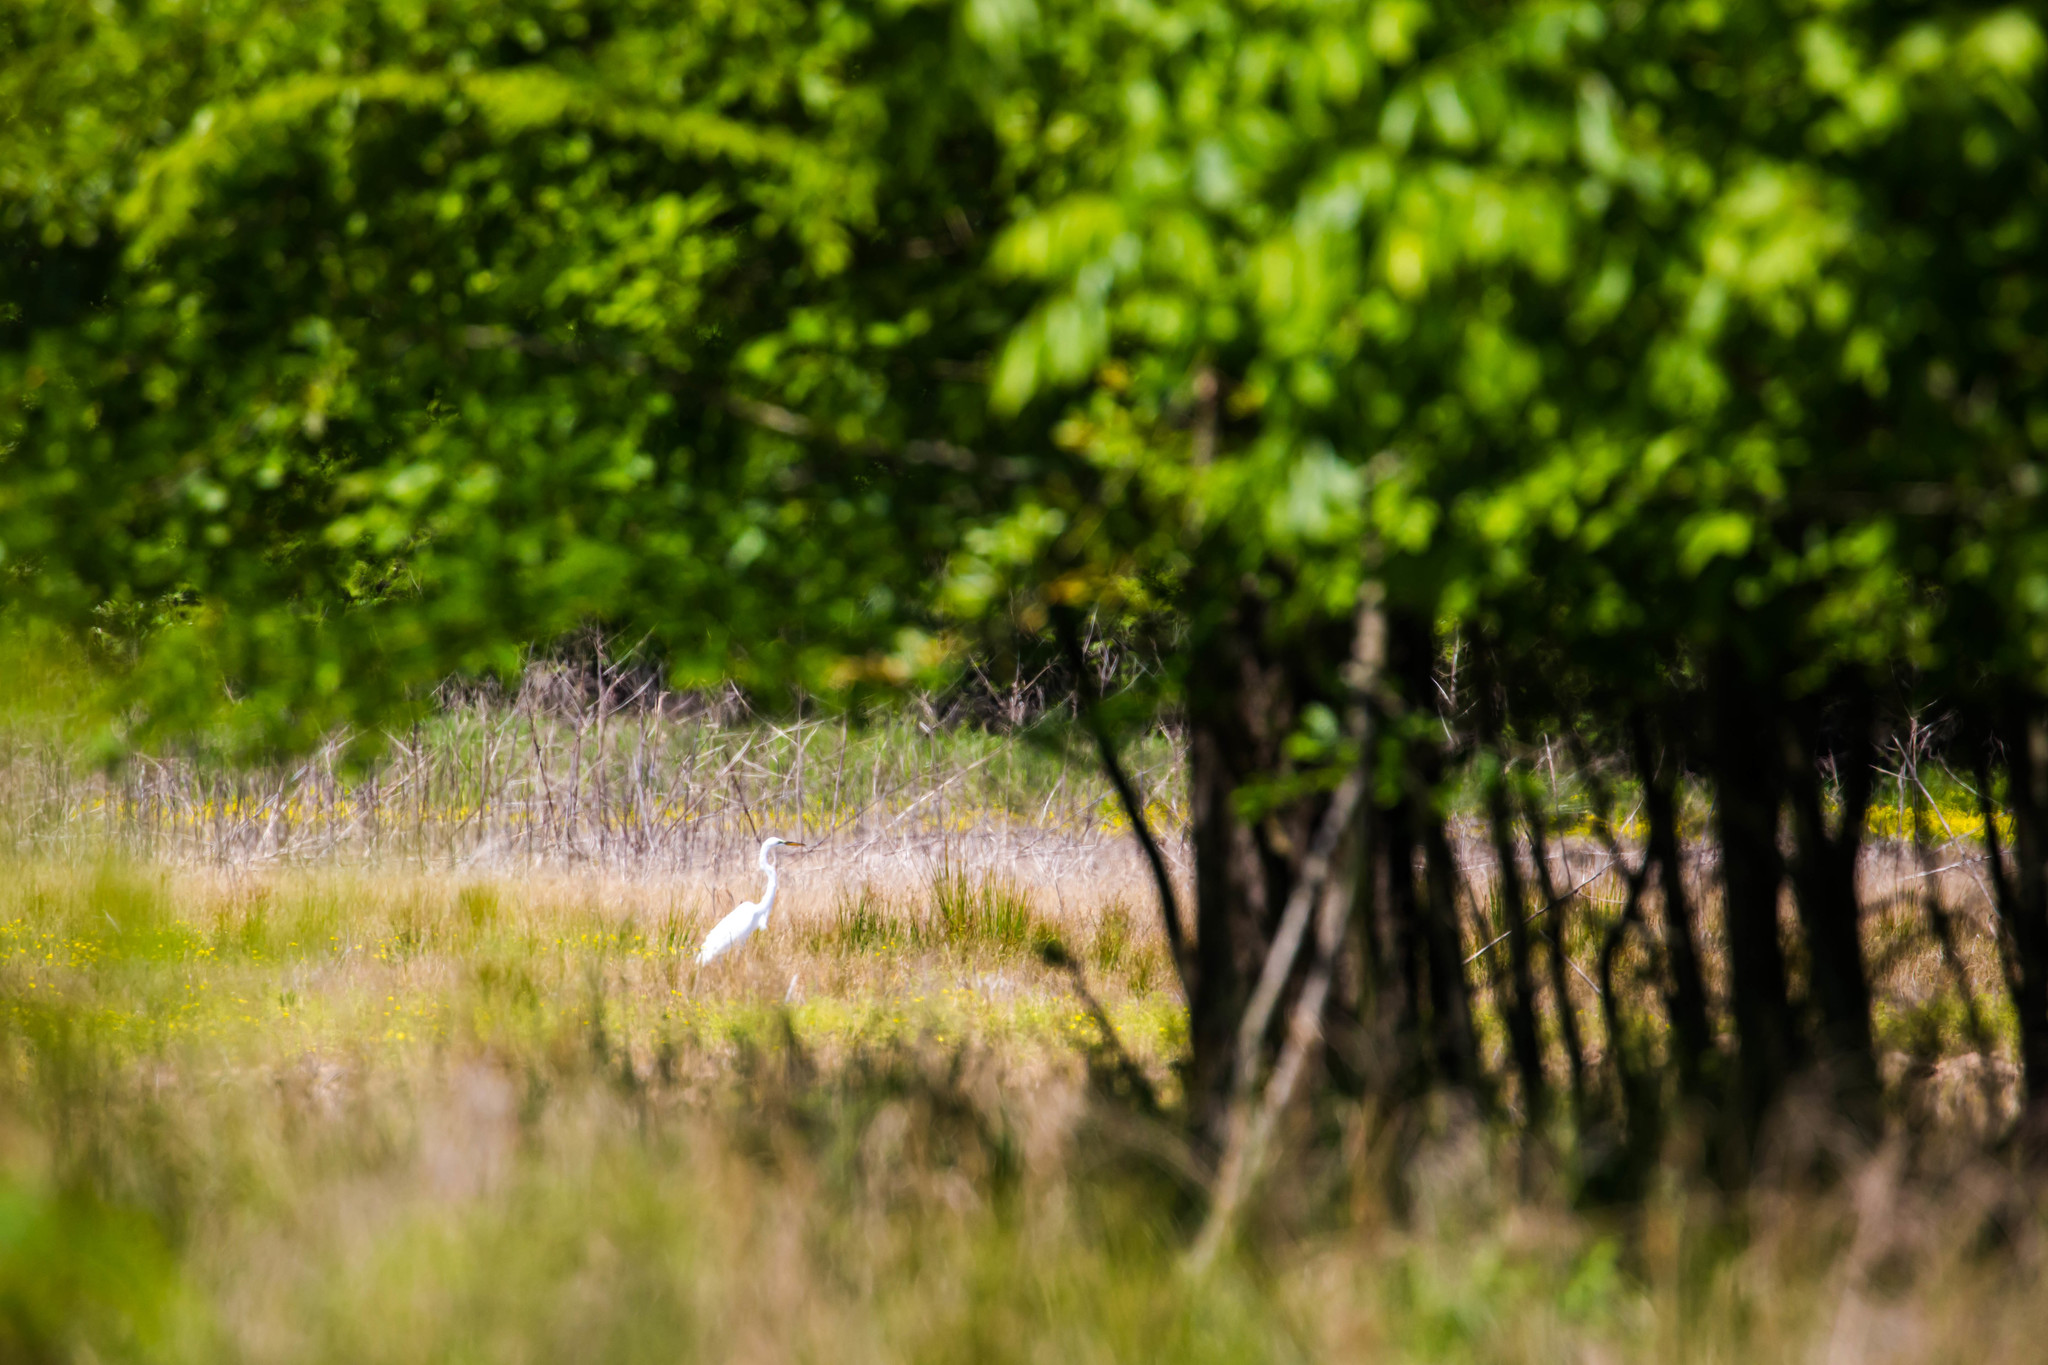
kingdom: Animalia
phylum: Chordata
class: Aves
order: Pelecaniformes
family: Ardeidae
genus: Ardea
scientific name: Ardea alba
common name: Great egret
